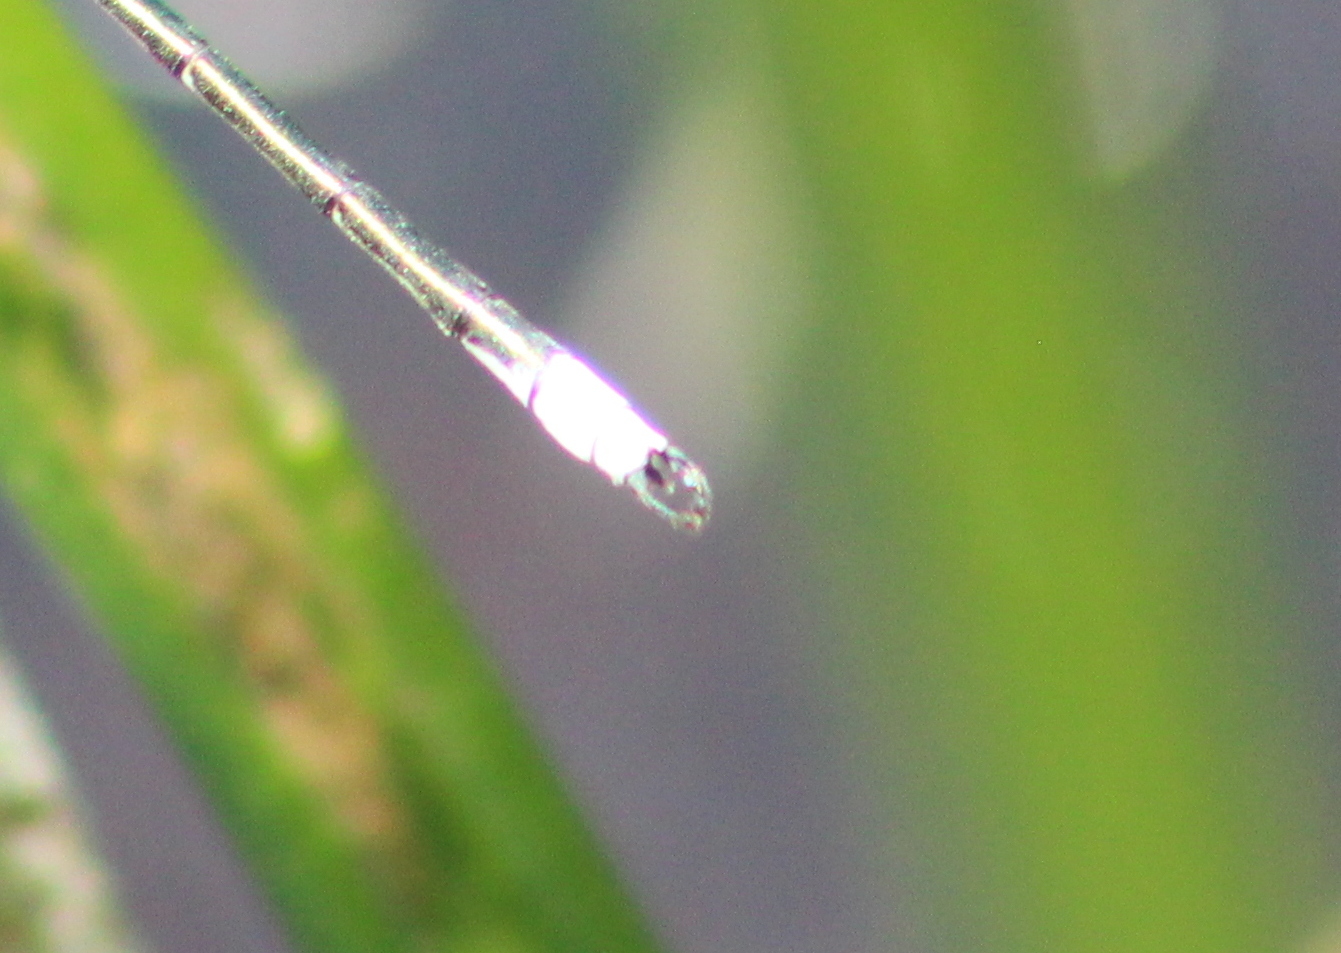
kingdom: Animalia
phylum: Arthropoda
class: Insecta
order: Odonata
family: Lestidae
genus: Lestes
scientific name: Lestes eurinus
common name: Amber-winged spreadwing
